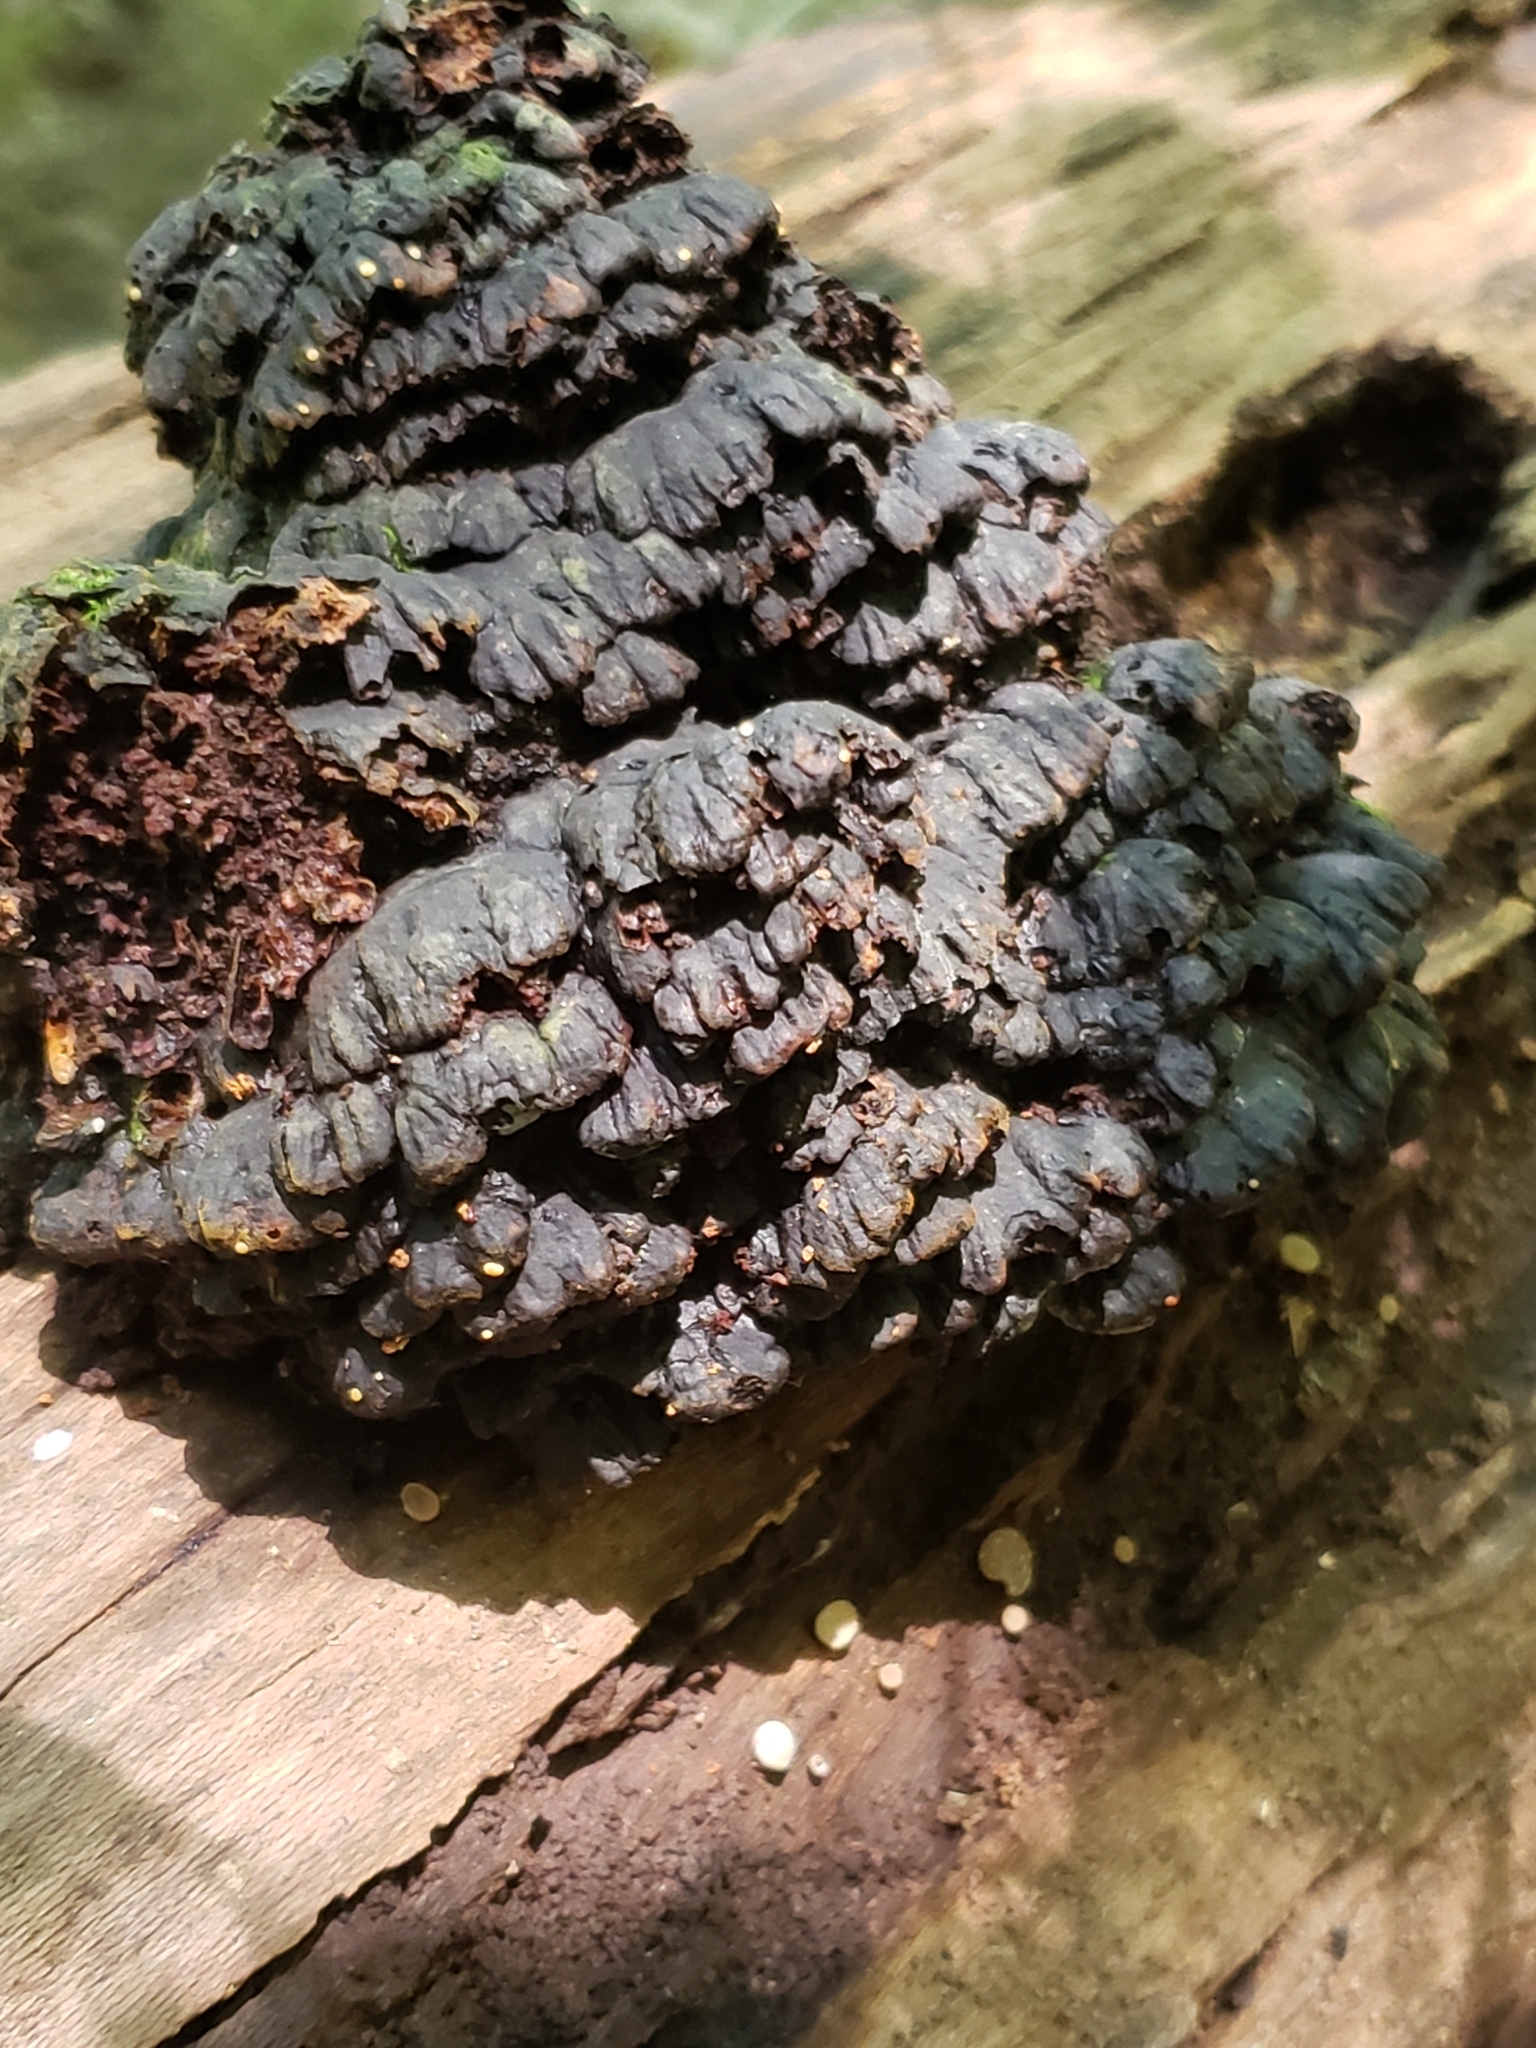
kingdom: Fungi
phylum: Basidiomycota
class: Agaricomycetes
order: Polyporales
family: Polyporaceae
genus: Globifomes
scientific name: Globifomes graveolens
